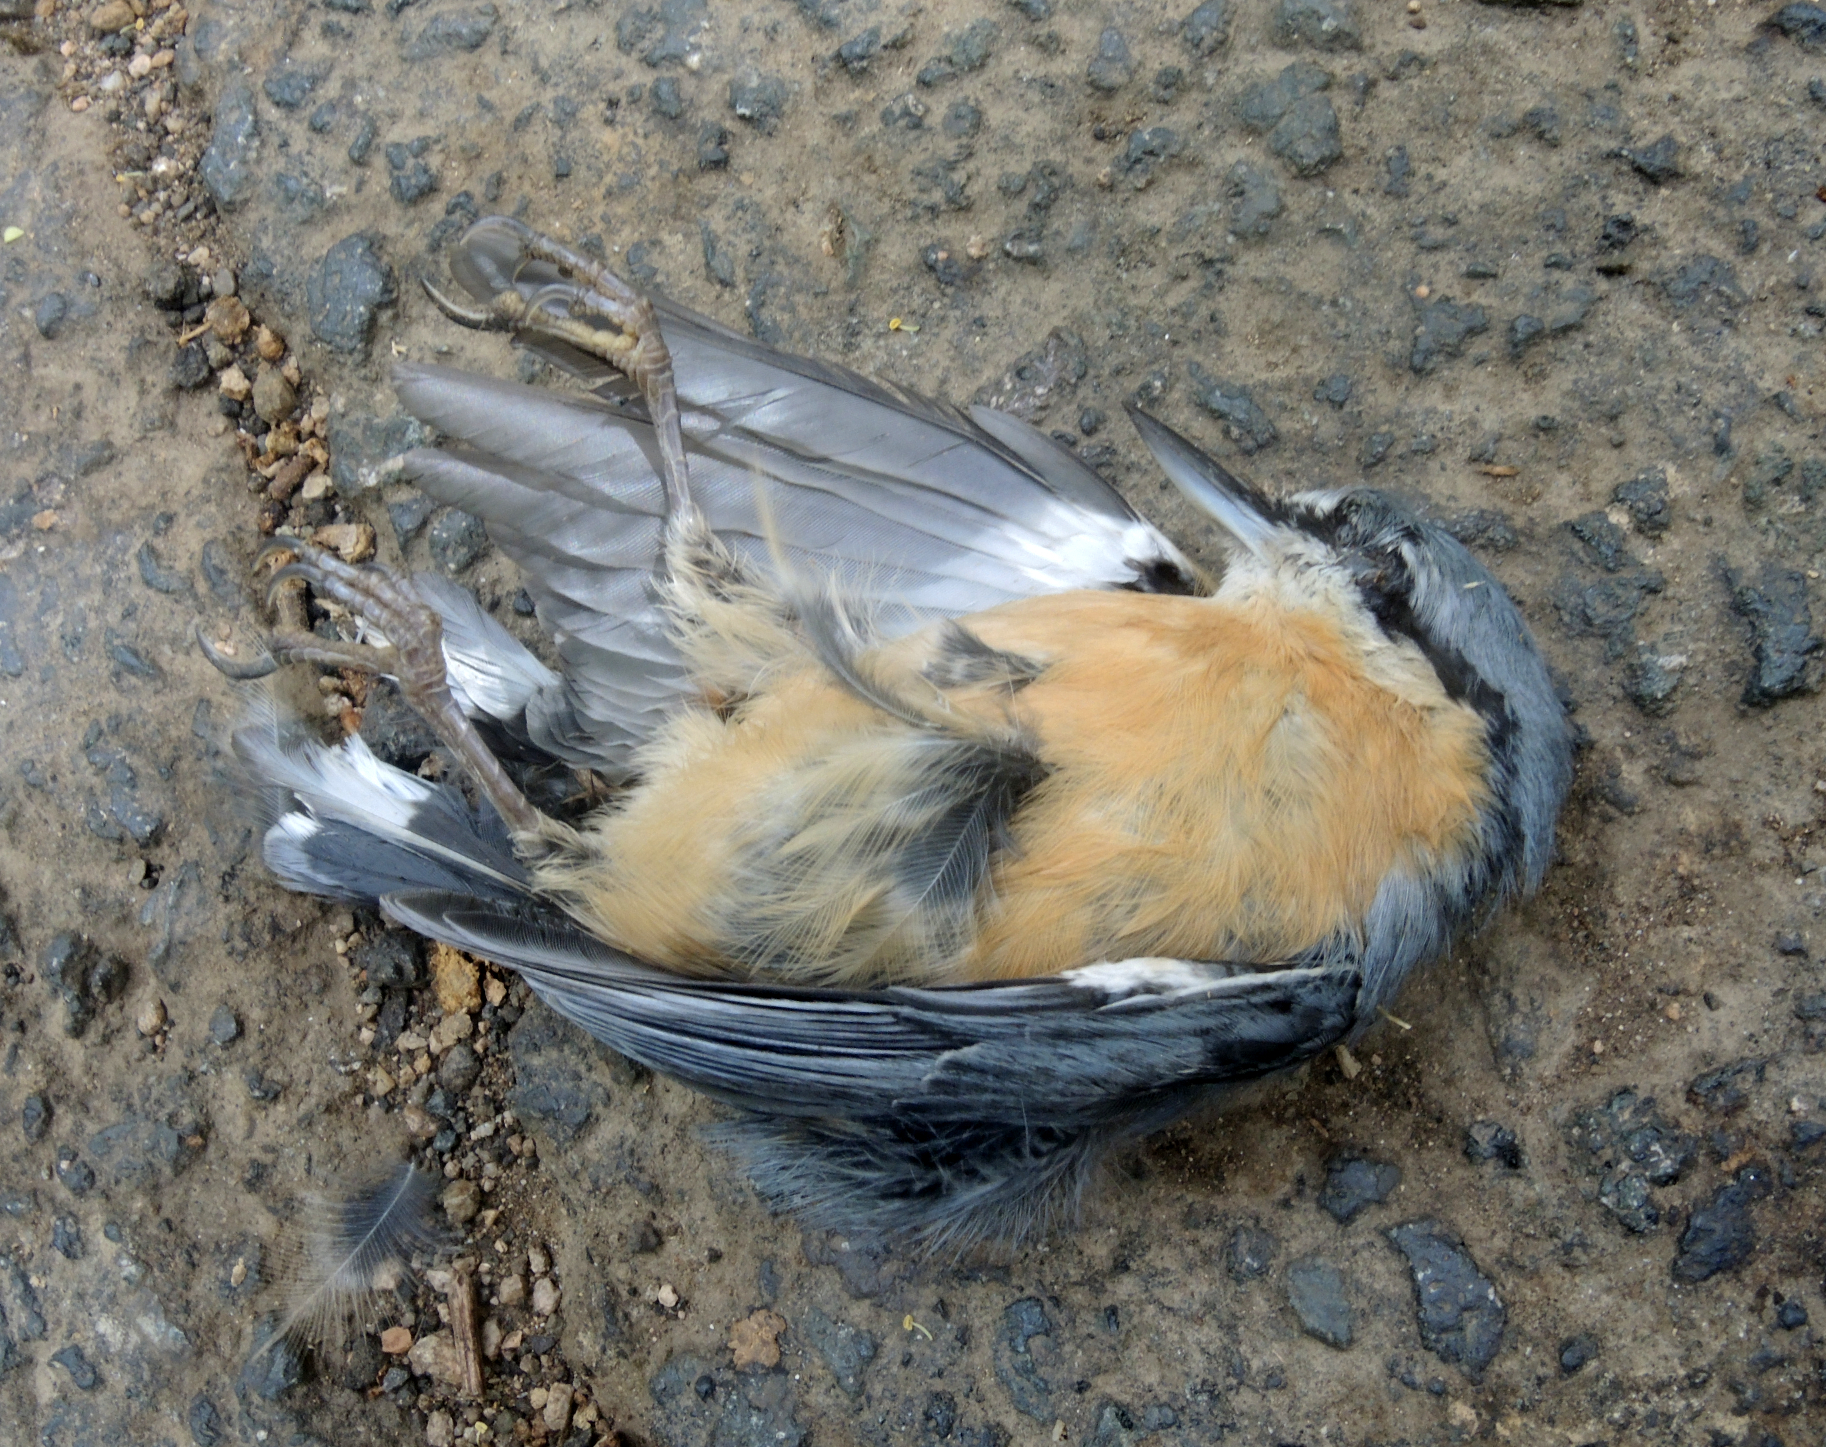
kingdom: Animalia
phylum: Chordata
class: Aves
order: Passeriformes
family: Sittidae
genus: Sitta
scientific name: Sitta europaea
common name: Eurasian nuthatch
